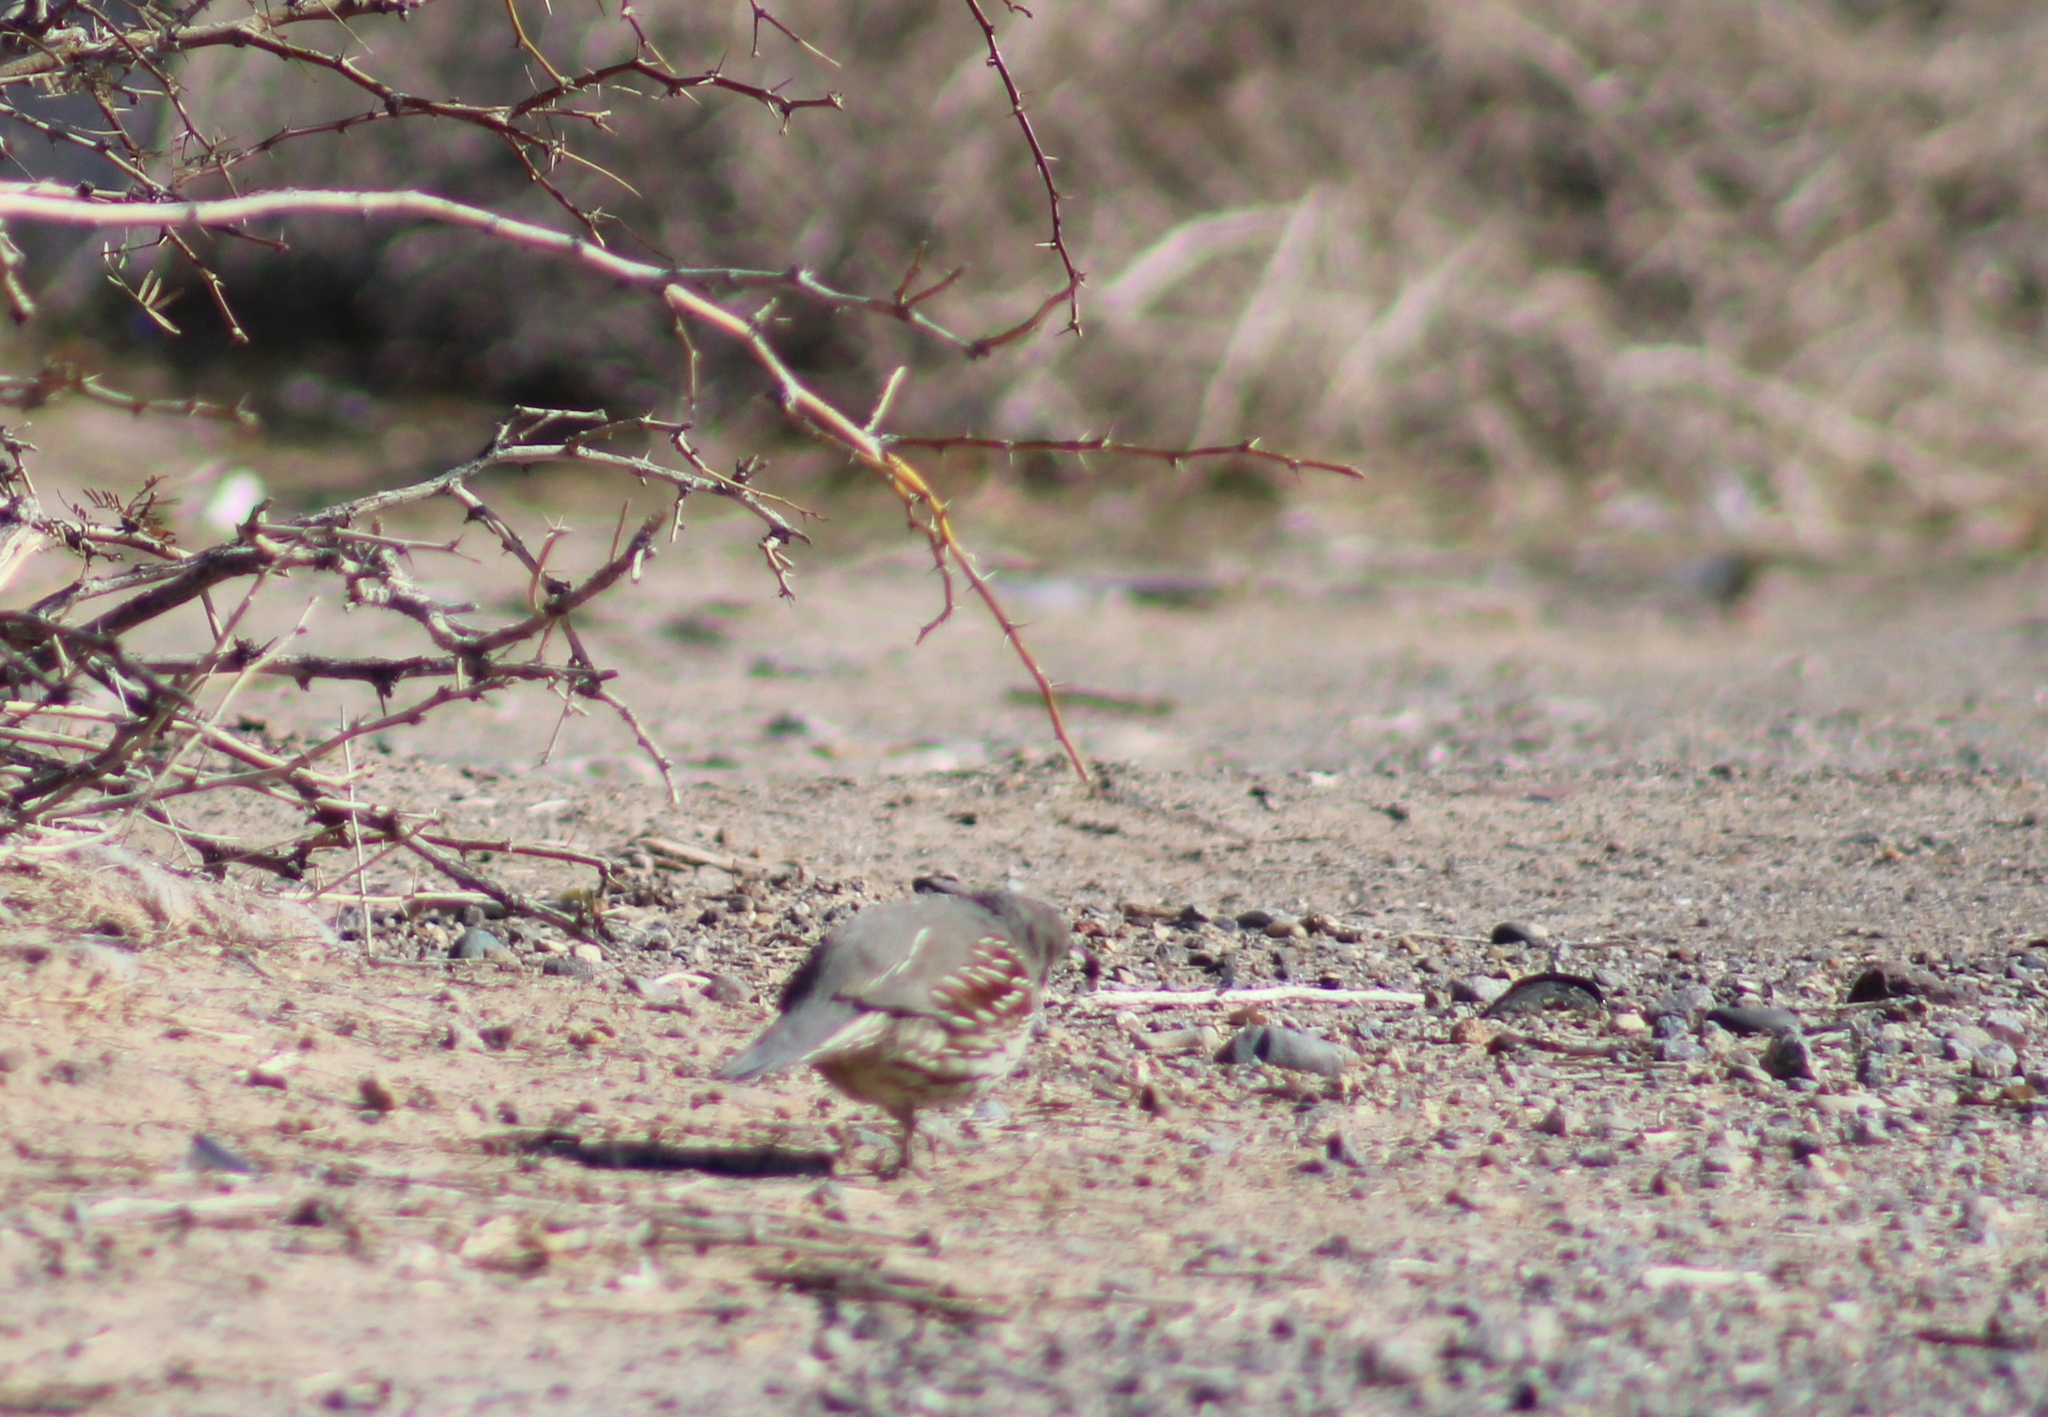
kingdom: Animalia
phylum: Chordata
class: Aves
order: Galliformes
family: Odontophoridae
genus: Callipepla
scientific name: Callipepla gambelii
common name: Gambel's quail
